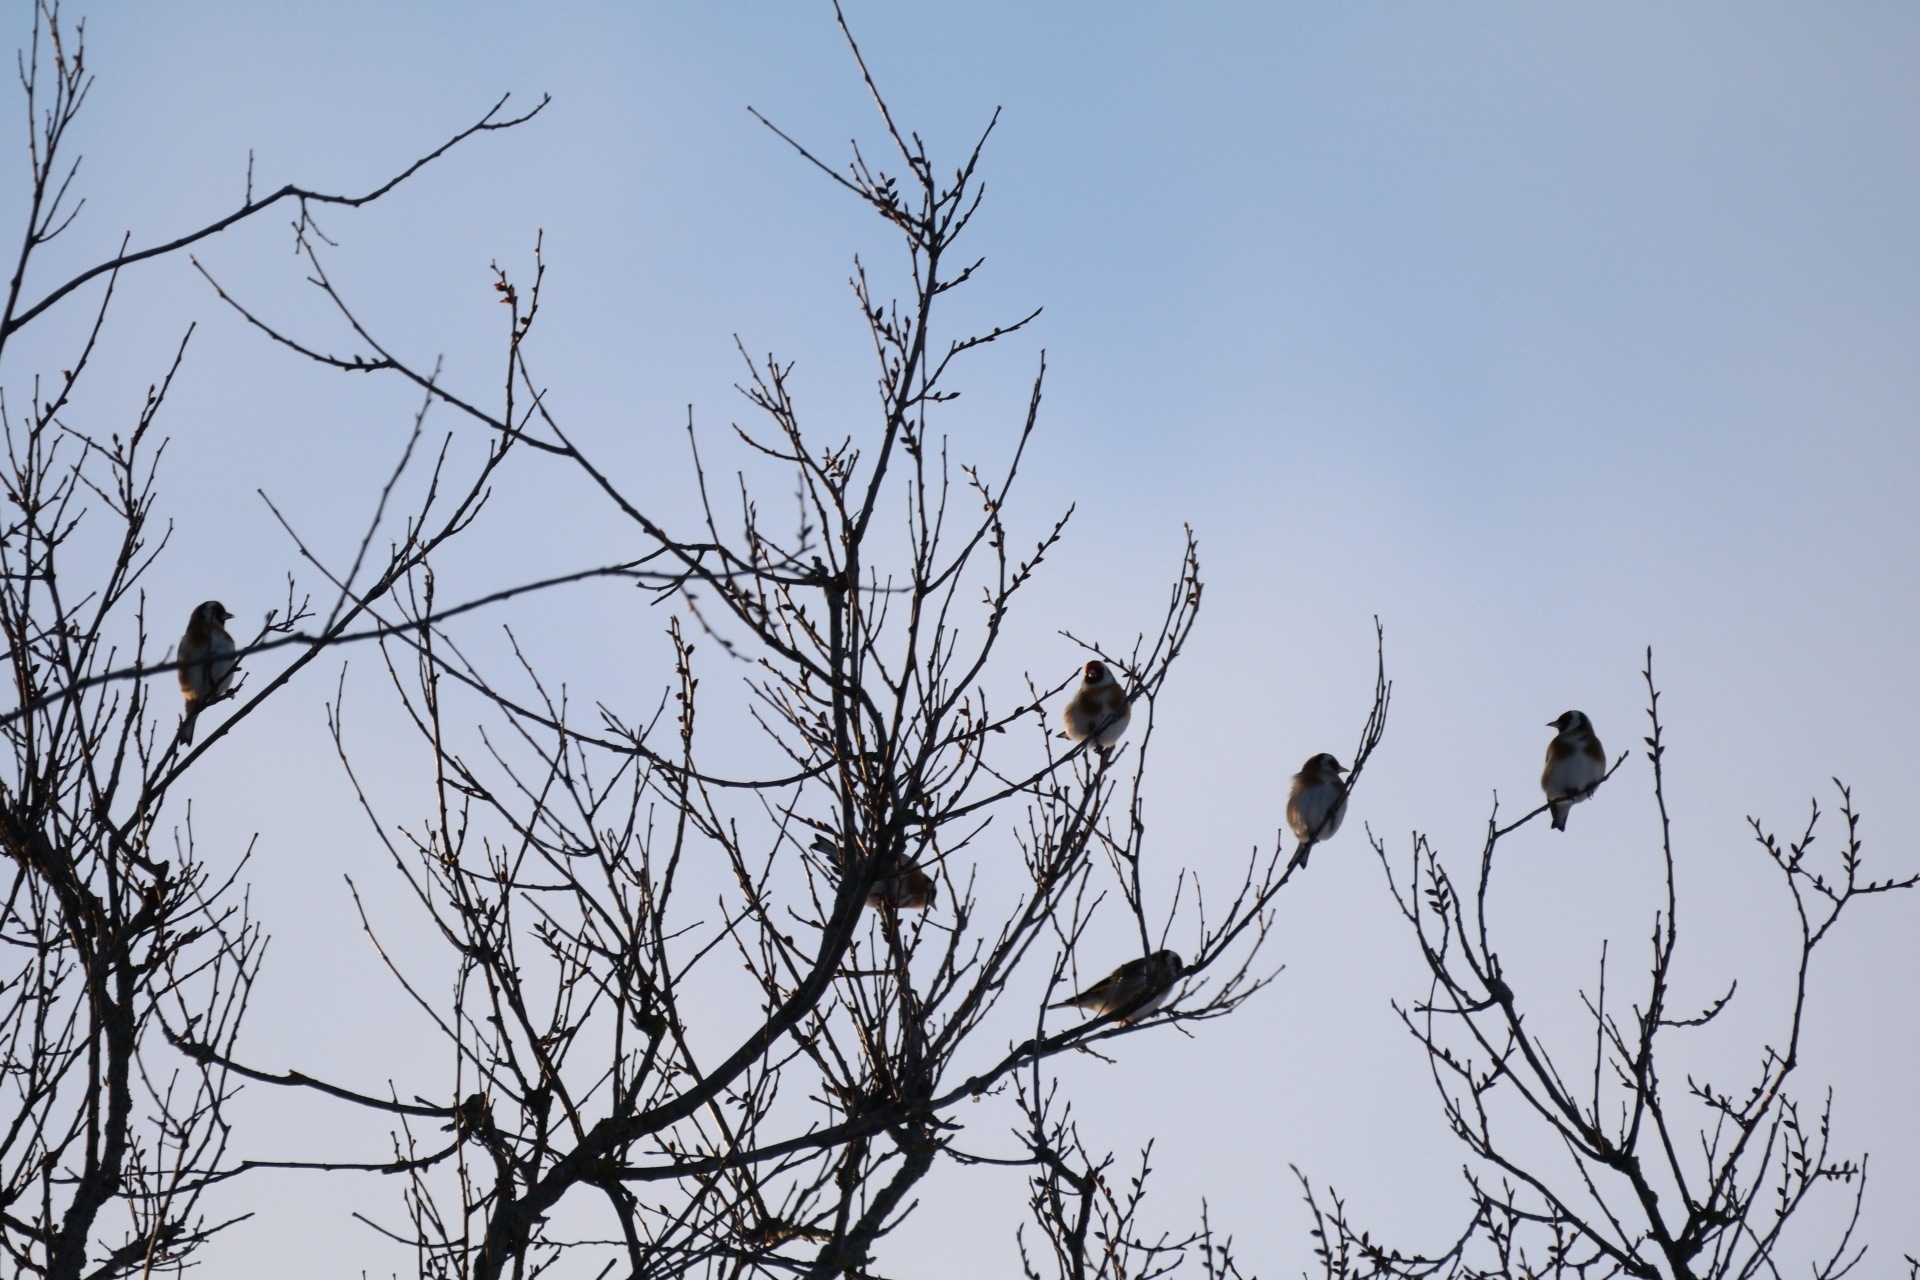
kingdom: Animalia
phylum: Chordata
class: Aves
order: Passeriformes
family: Fringillidae
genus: Carduelis
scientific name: Carduelis carduelis
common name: European goldfinch
